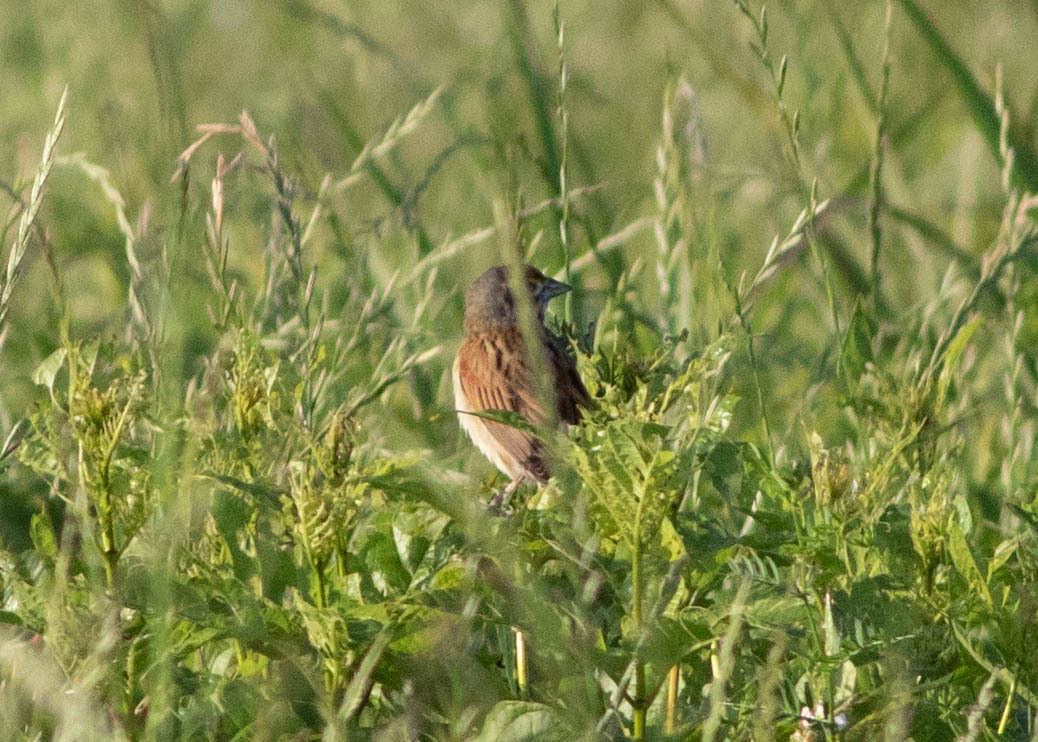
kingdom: Animalia
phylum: Chordata
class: Aves
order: Passeriformes
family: Cardinalidae
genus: Spiza
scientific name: Spiza americana
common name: Dickcissel
